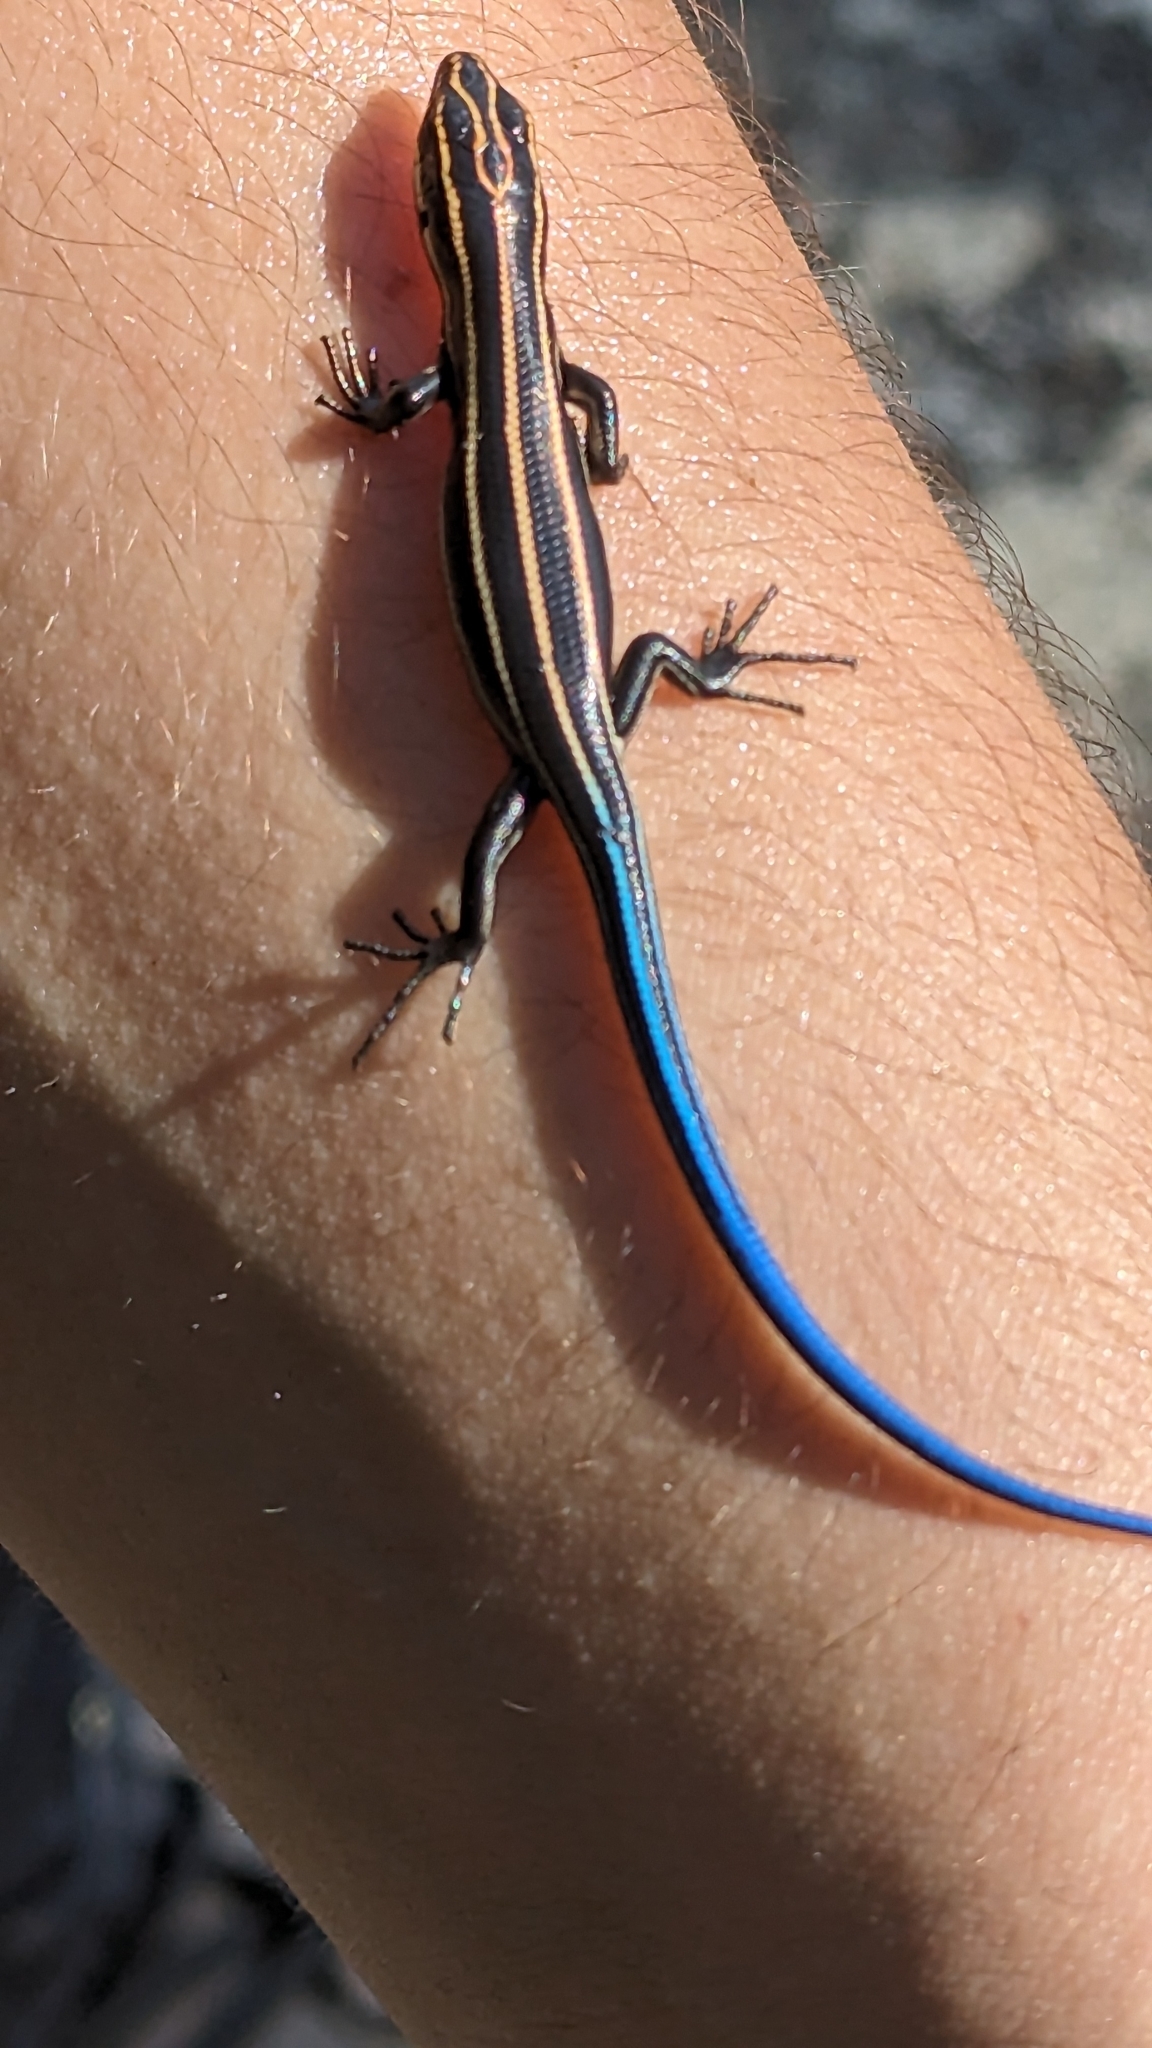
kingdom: Animalia
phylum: Chordata
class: Squamata
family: Scincidae
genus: Plestiodon
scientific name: Plestiodon fasciatus
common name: Five-lined skink
